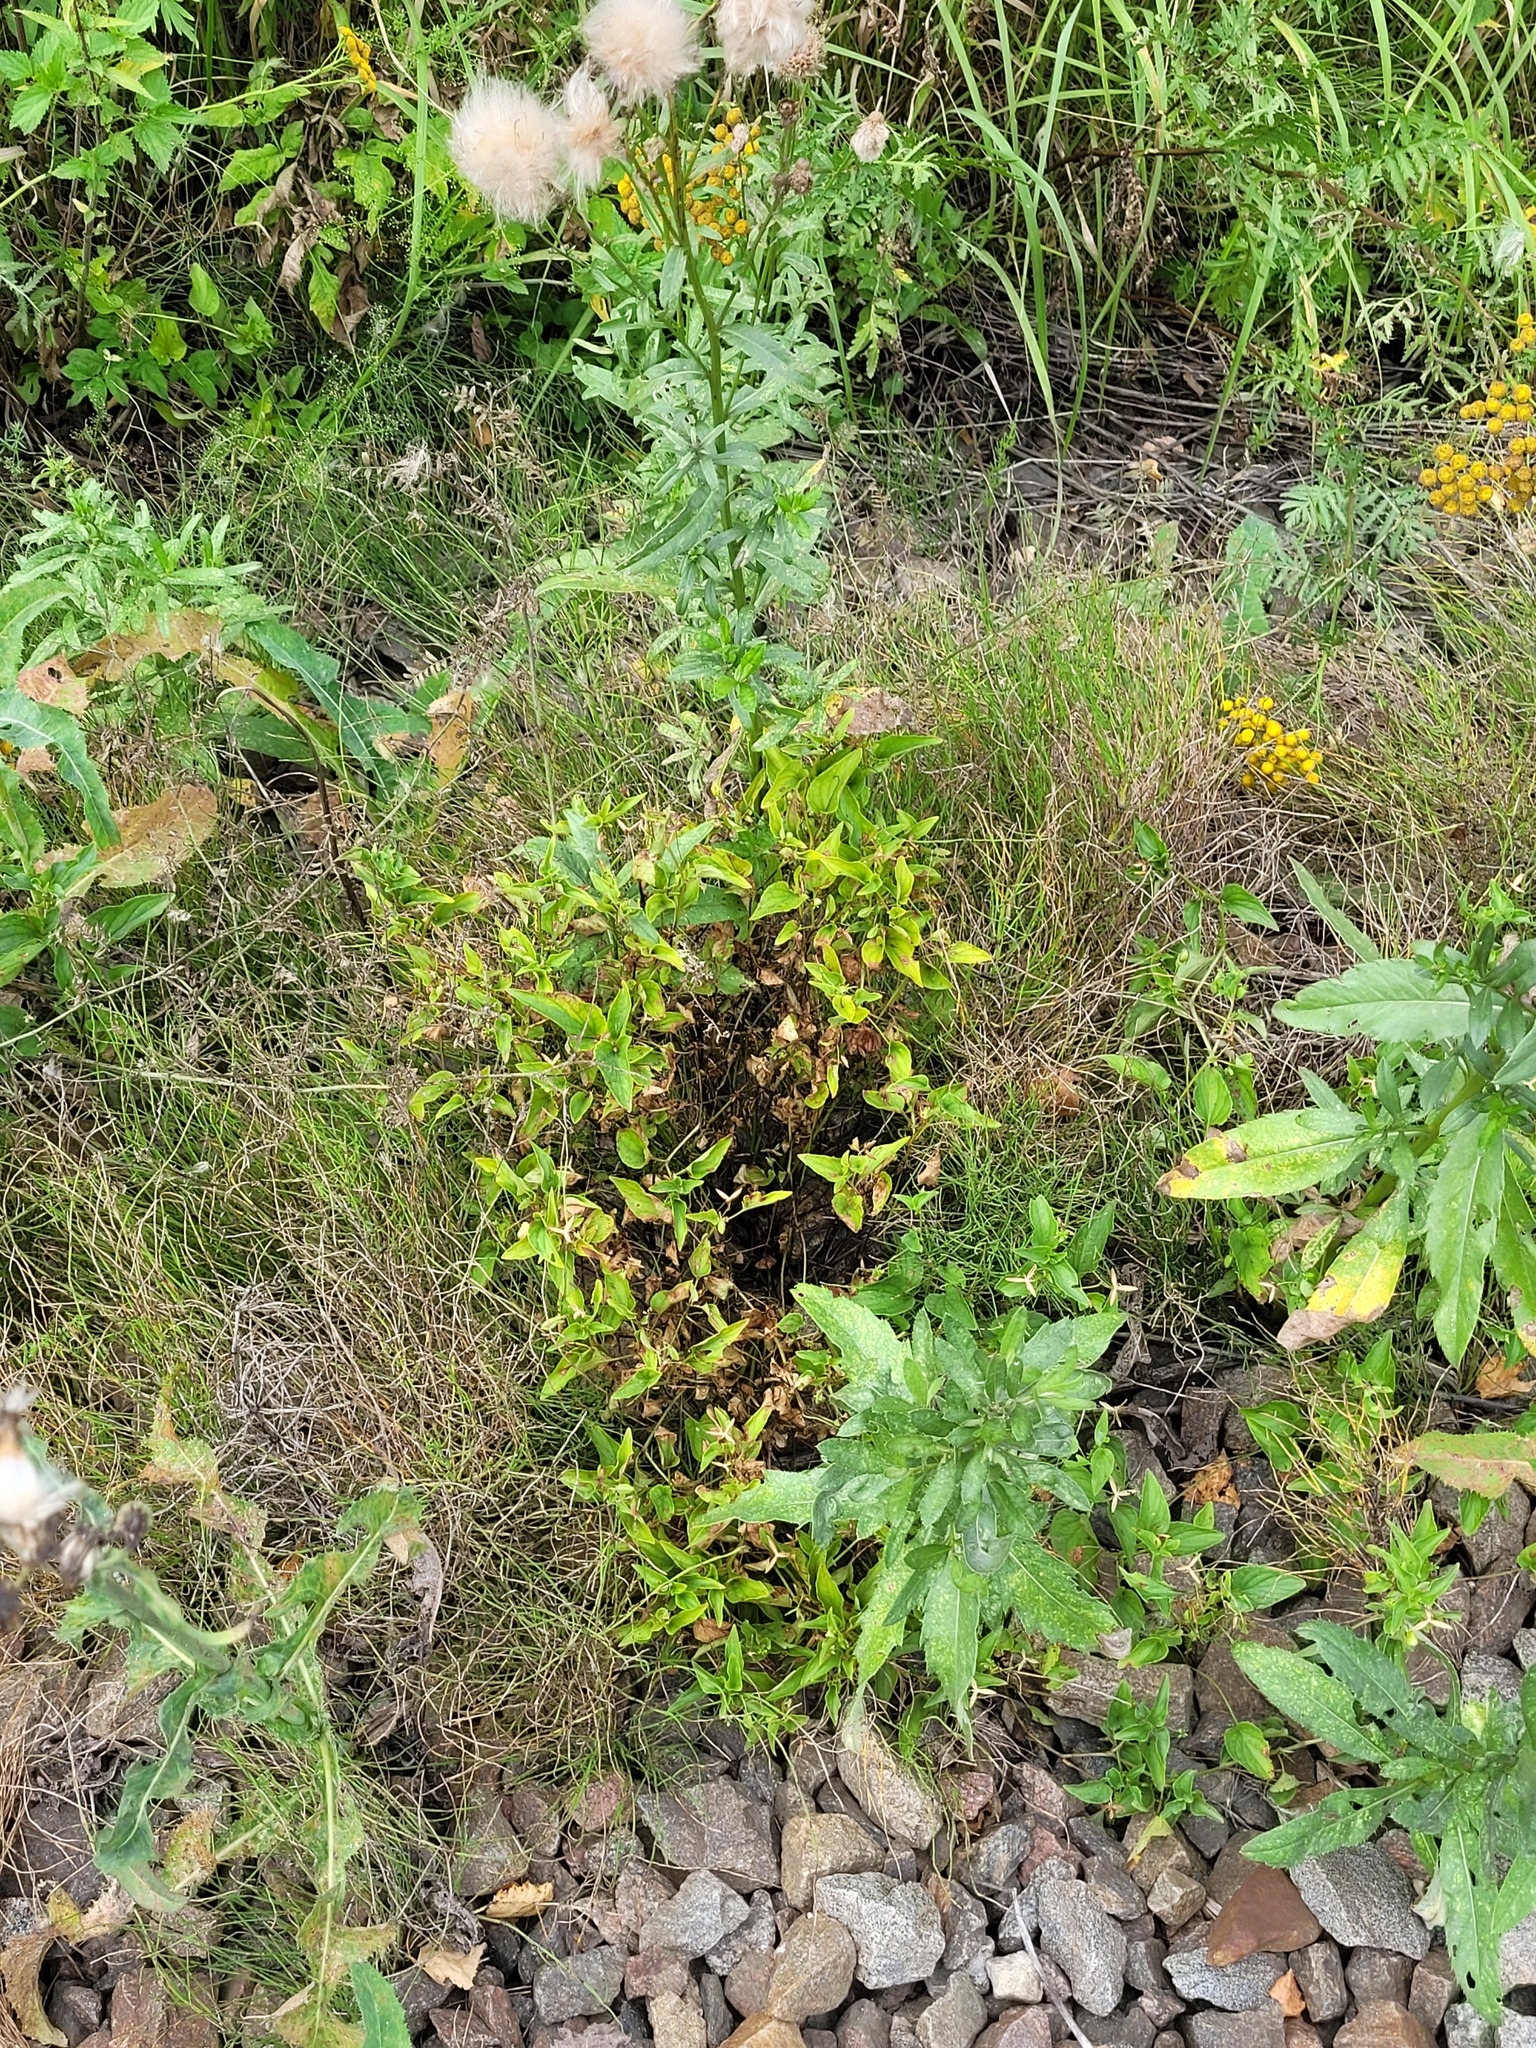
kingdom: Plantae
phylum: Tracheophyta
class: Magnoliopsida
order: Malpighiales
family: Violaceae
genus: Viola
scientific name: Viola canina
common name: Heath dog-violet
